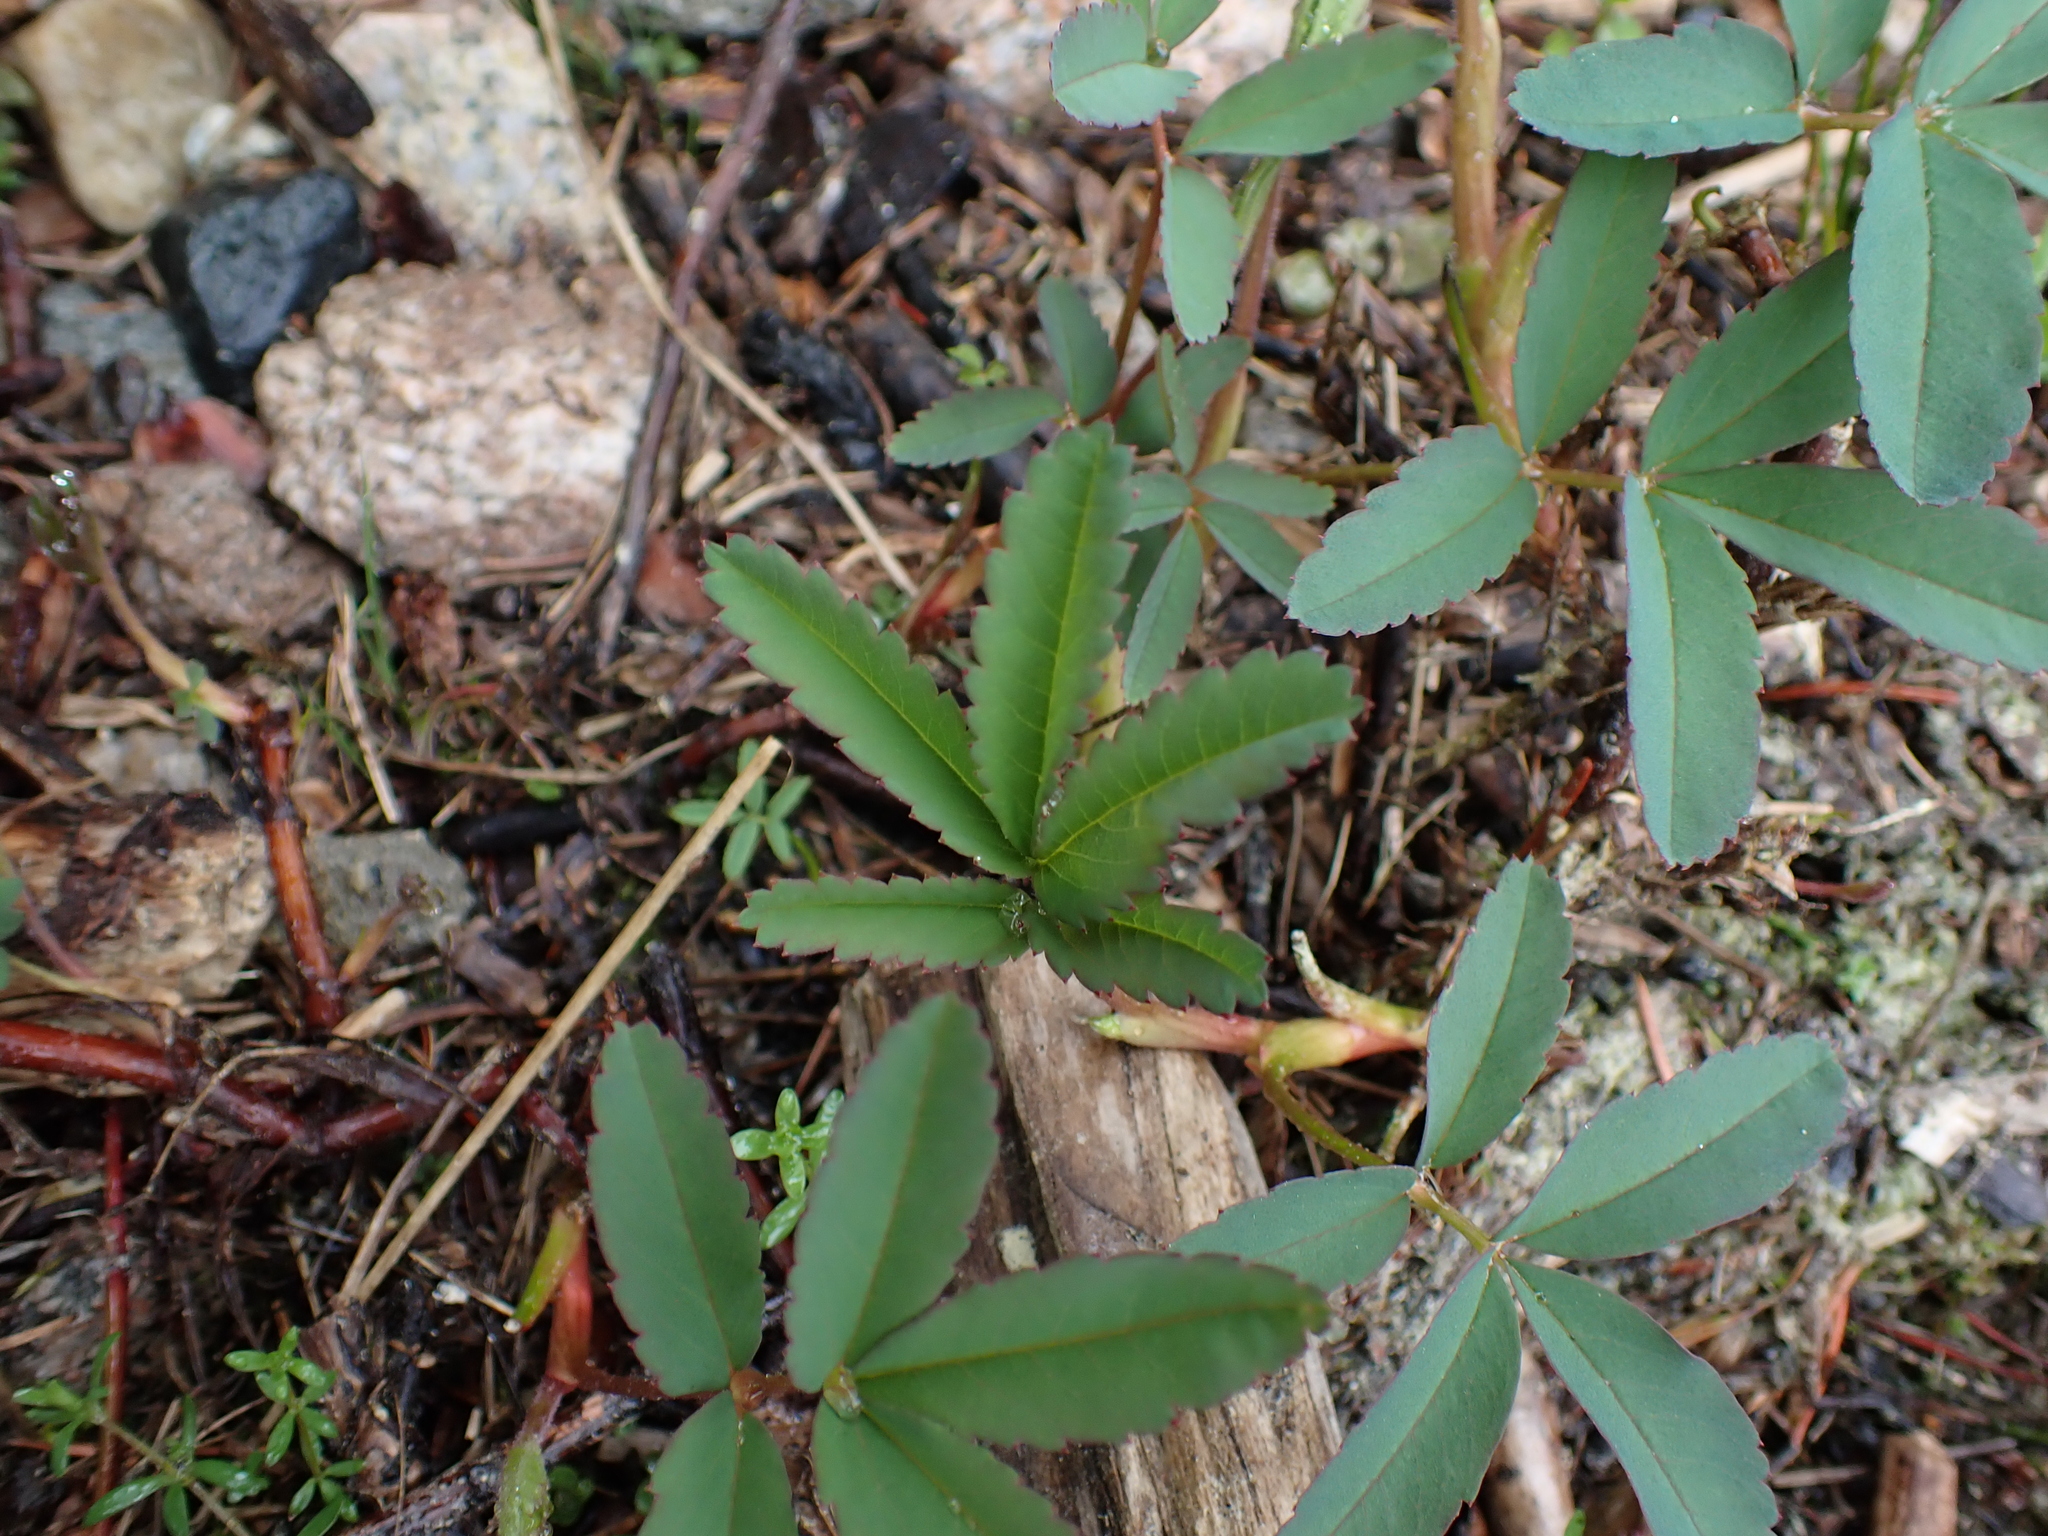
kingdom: Plantae
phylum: Tracheophyta
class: Magnoliopsida
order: Rosales
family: Rosaceae
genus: Comarum
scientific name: Comarum palustre
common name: Marsh cinquefoil
